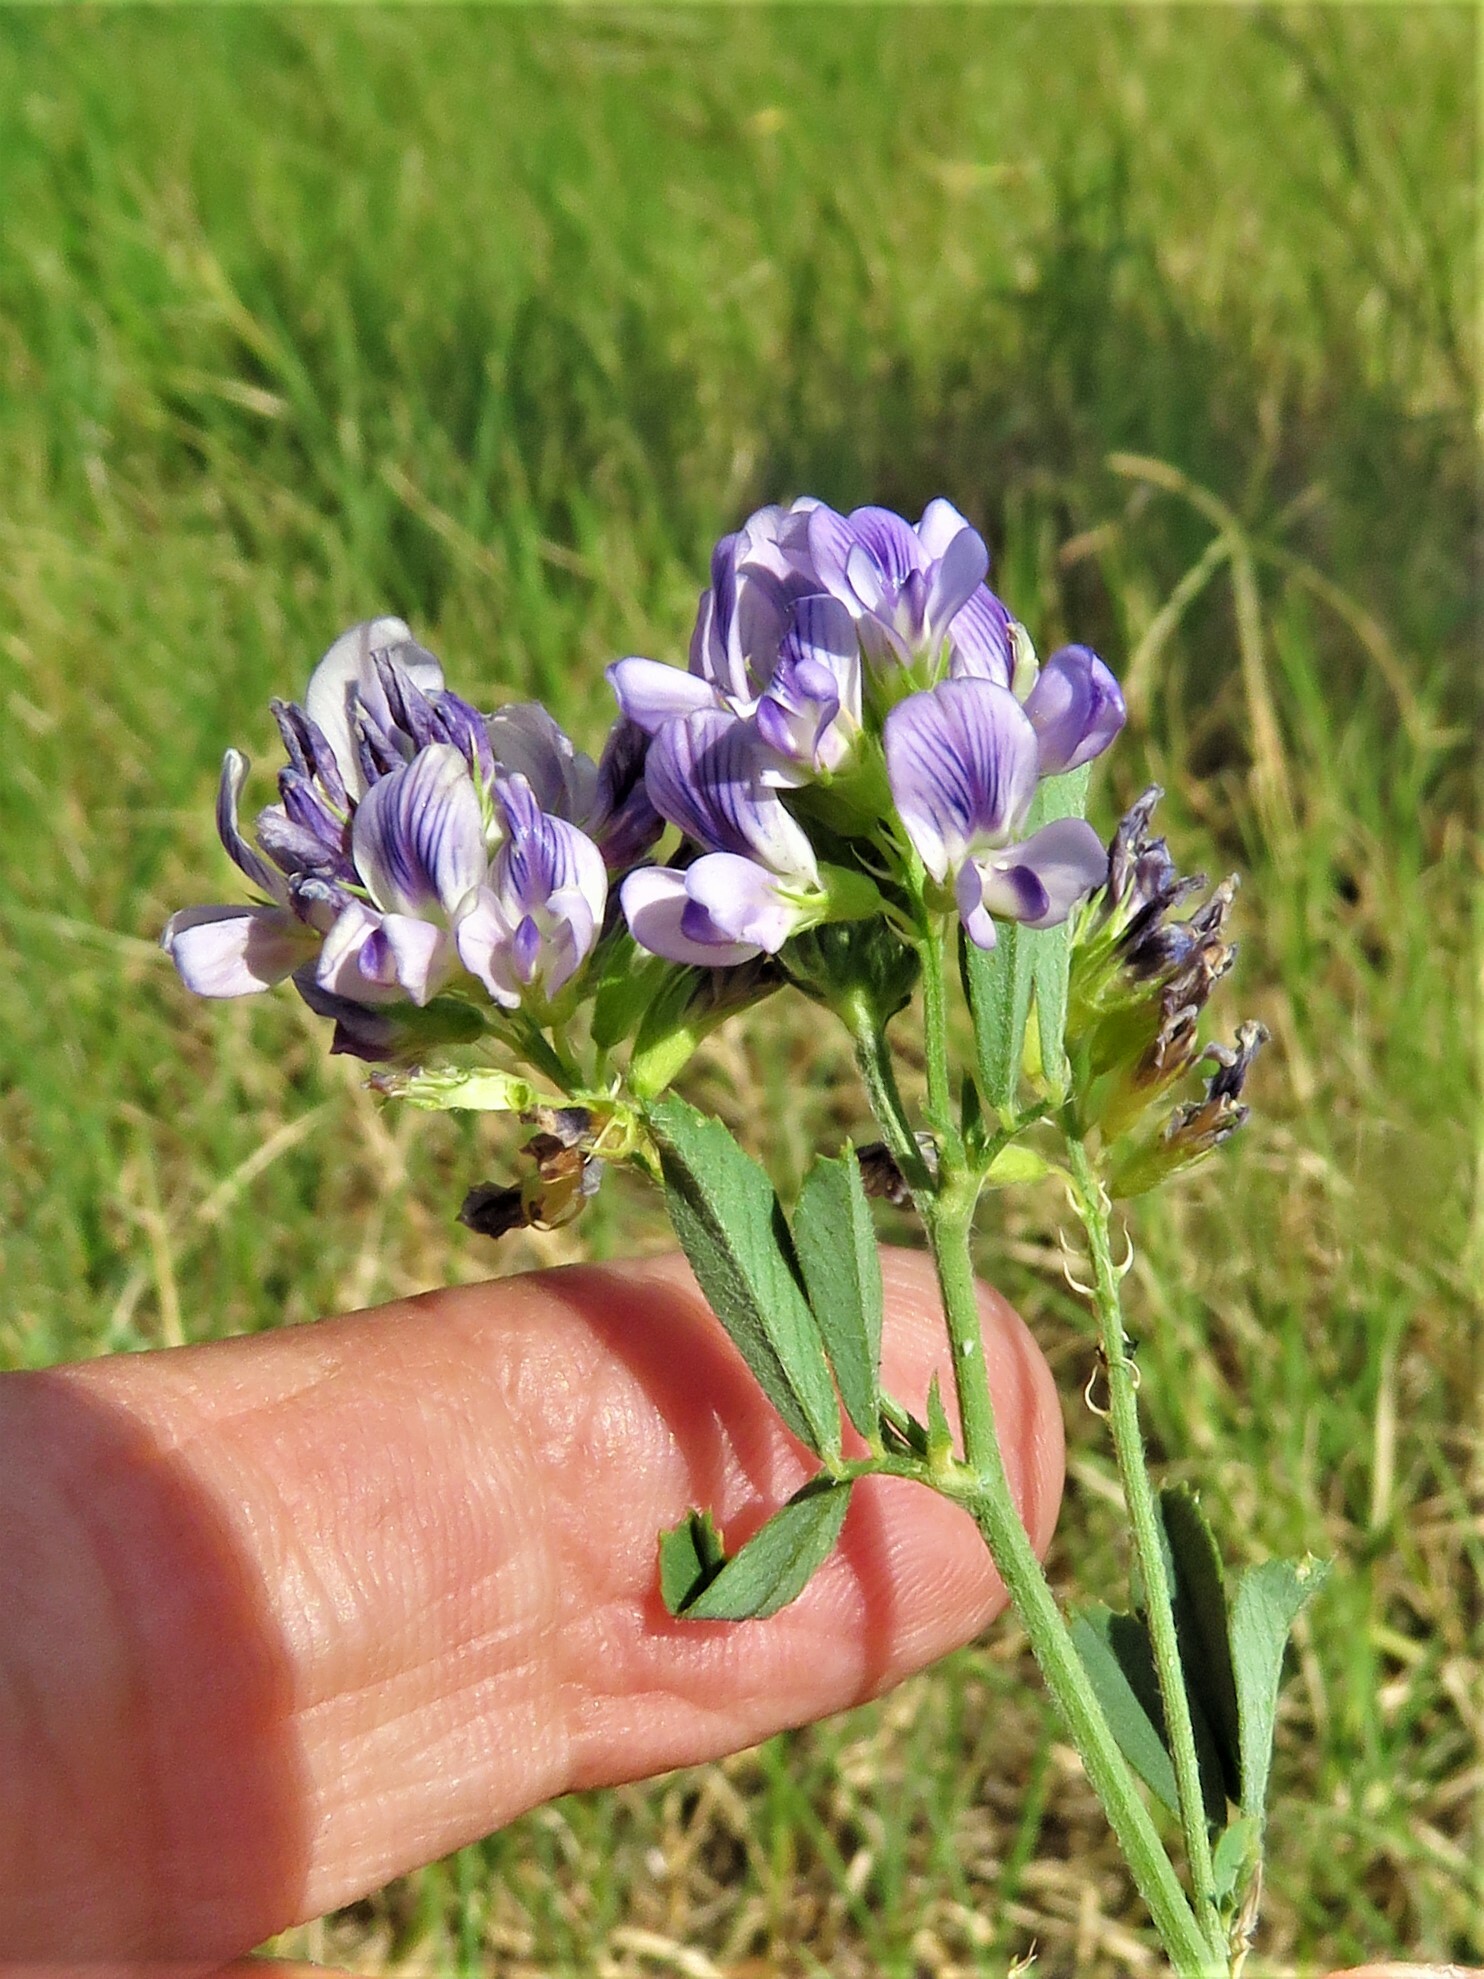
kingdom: Plantae
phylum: Tracheophyta
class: Magnoliopsida
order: Fabales
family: Fabaceae
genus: Medicago
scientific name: Medicago sativa
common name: Alfalfa
